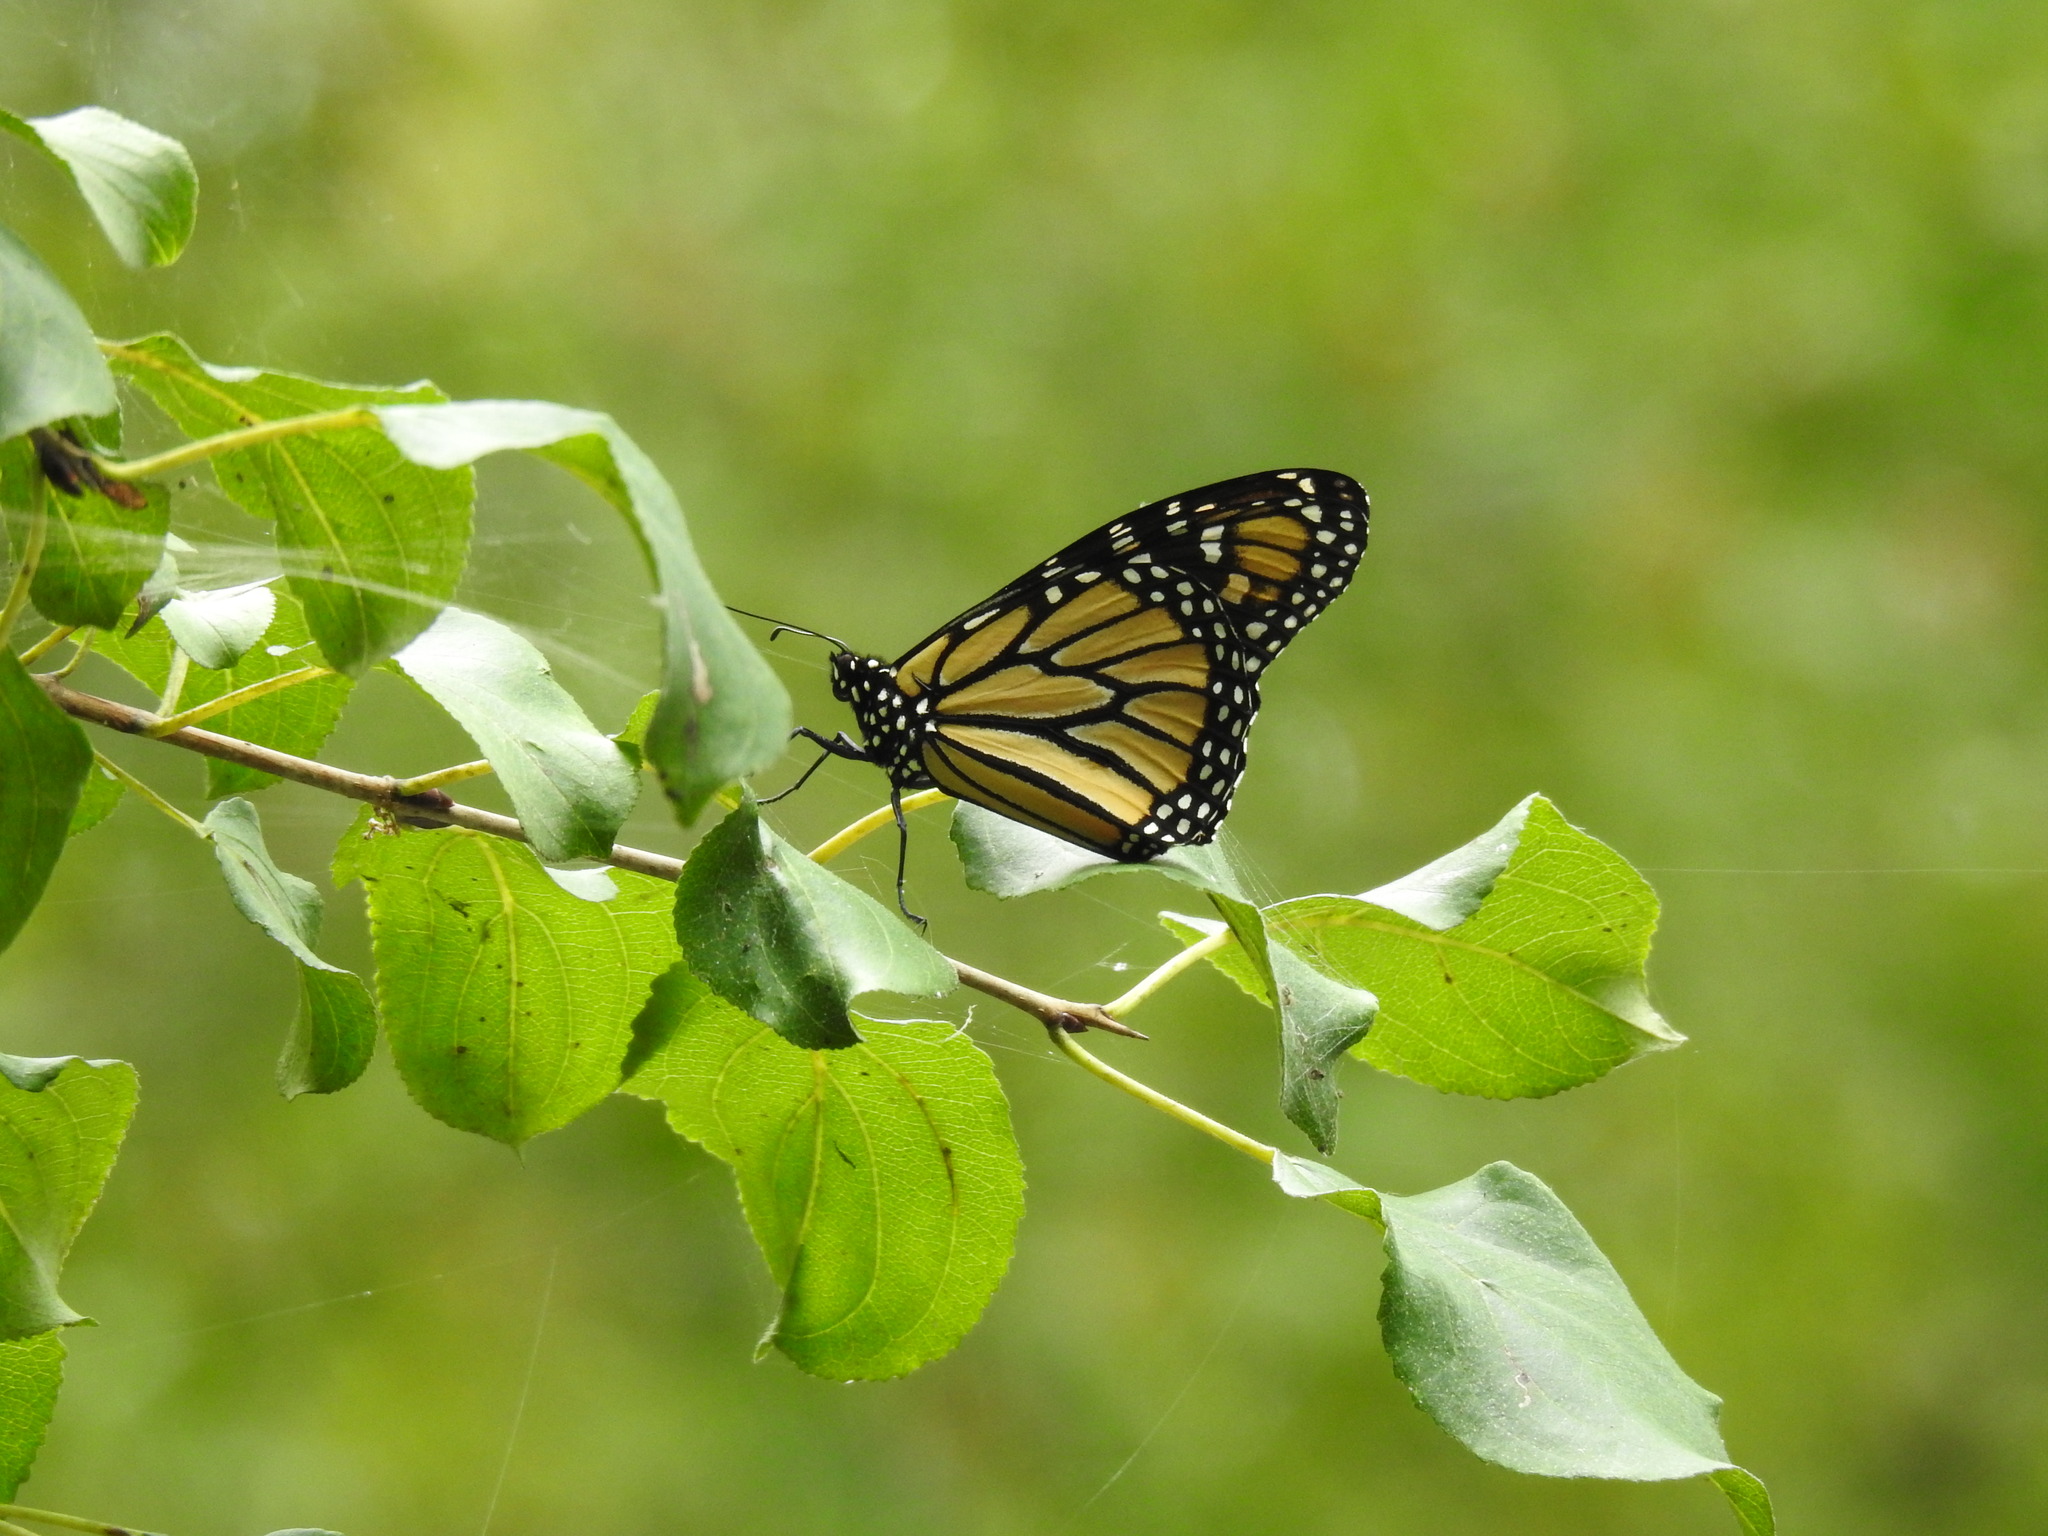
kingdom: Animalia
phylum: Arthropoda
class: Insecta
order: Lepidoptera
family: Nymphalidae
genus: Danaus
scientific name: Danaus plexippus
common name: Monarch
